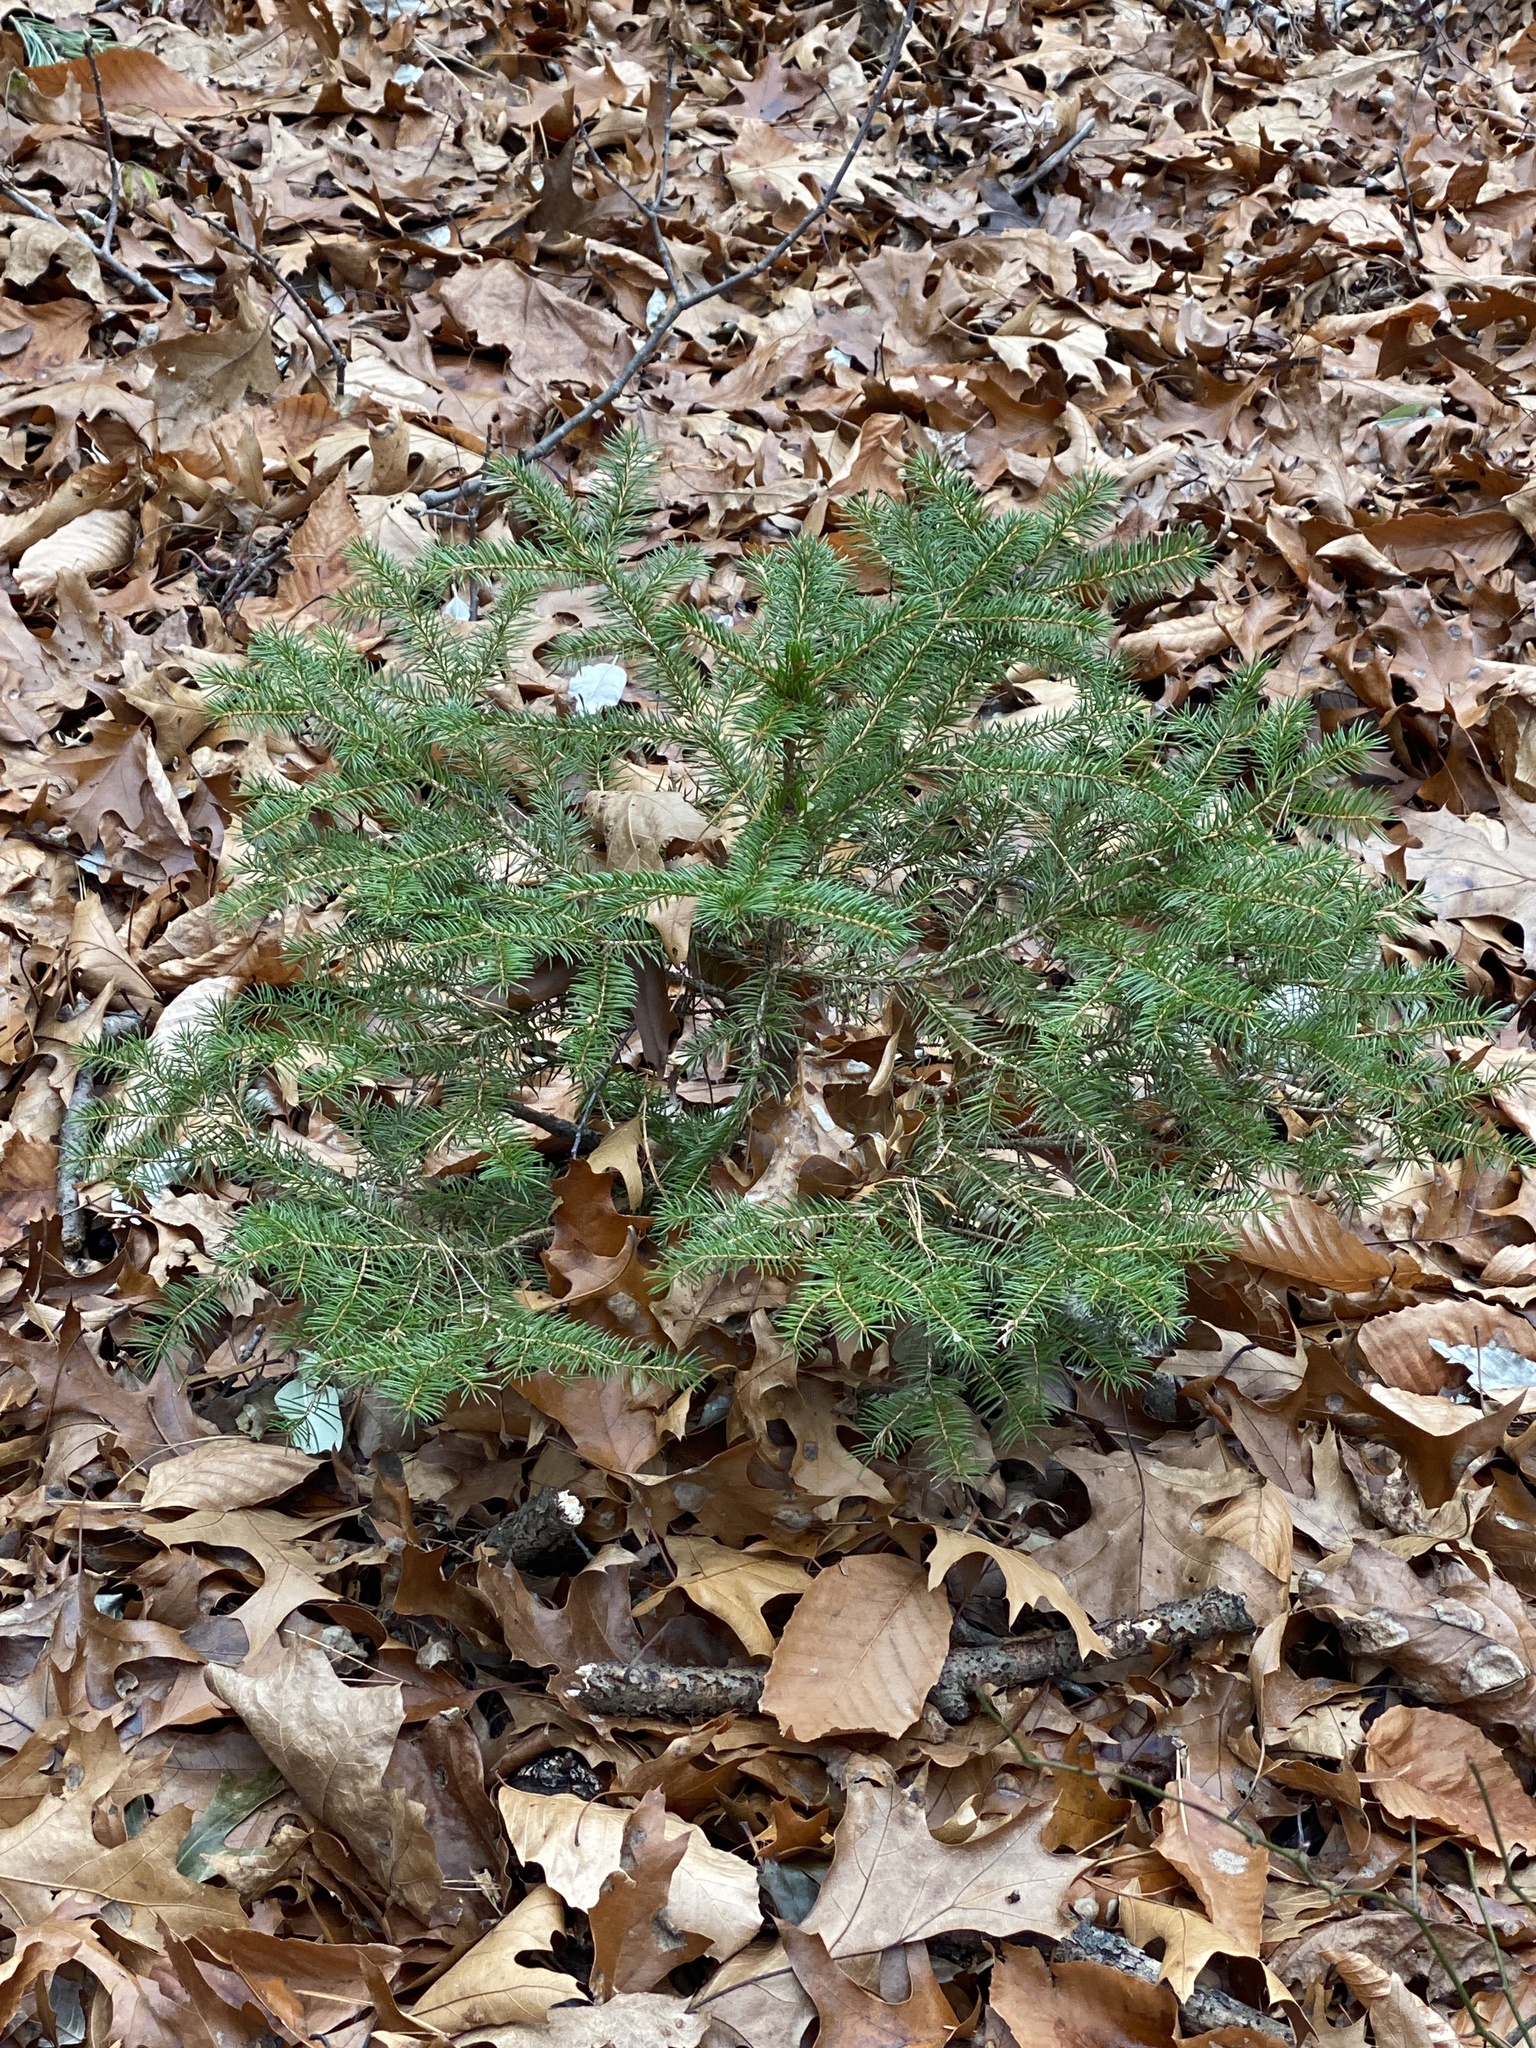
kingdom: Plantae
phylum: Tracheophyta
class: Pinopsida
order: Pinales
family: Pinaceae
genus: Picea
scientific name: Picea glauca
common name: White spruce
